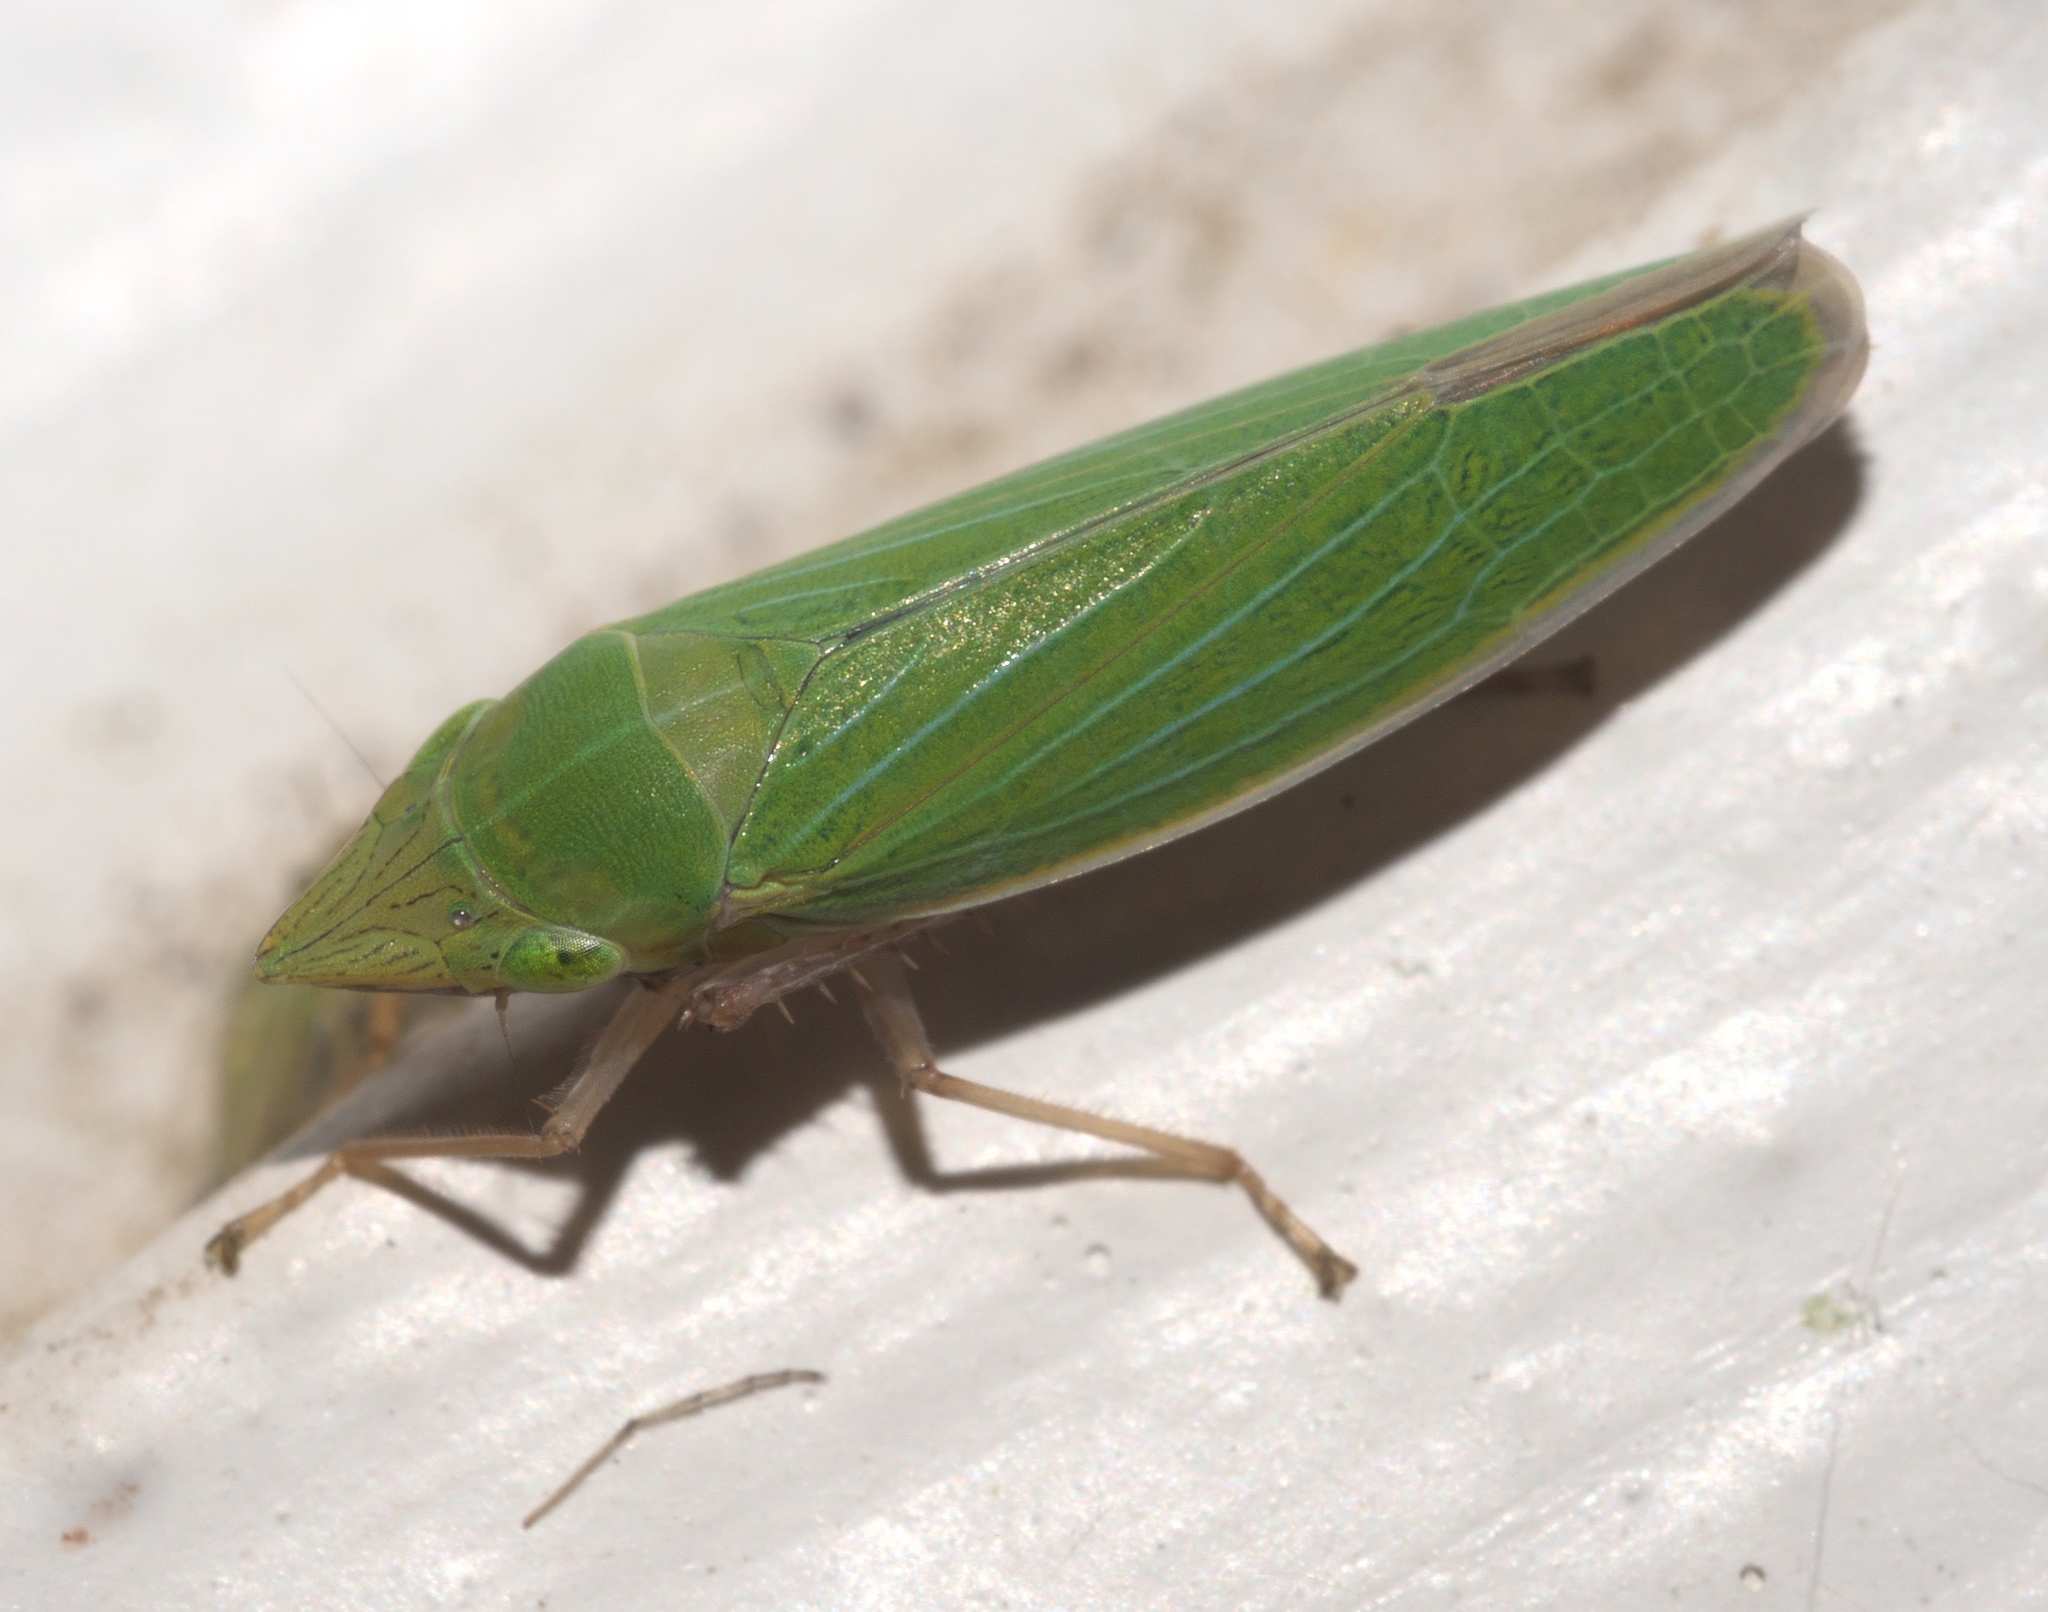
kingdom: Animalia
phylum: Arthropoda
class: Insecta
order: Hemiptera
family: Cicadellidae
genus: Draeculacephala
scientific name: Draeculacephala robinsoni
